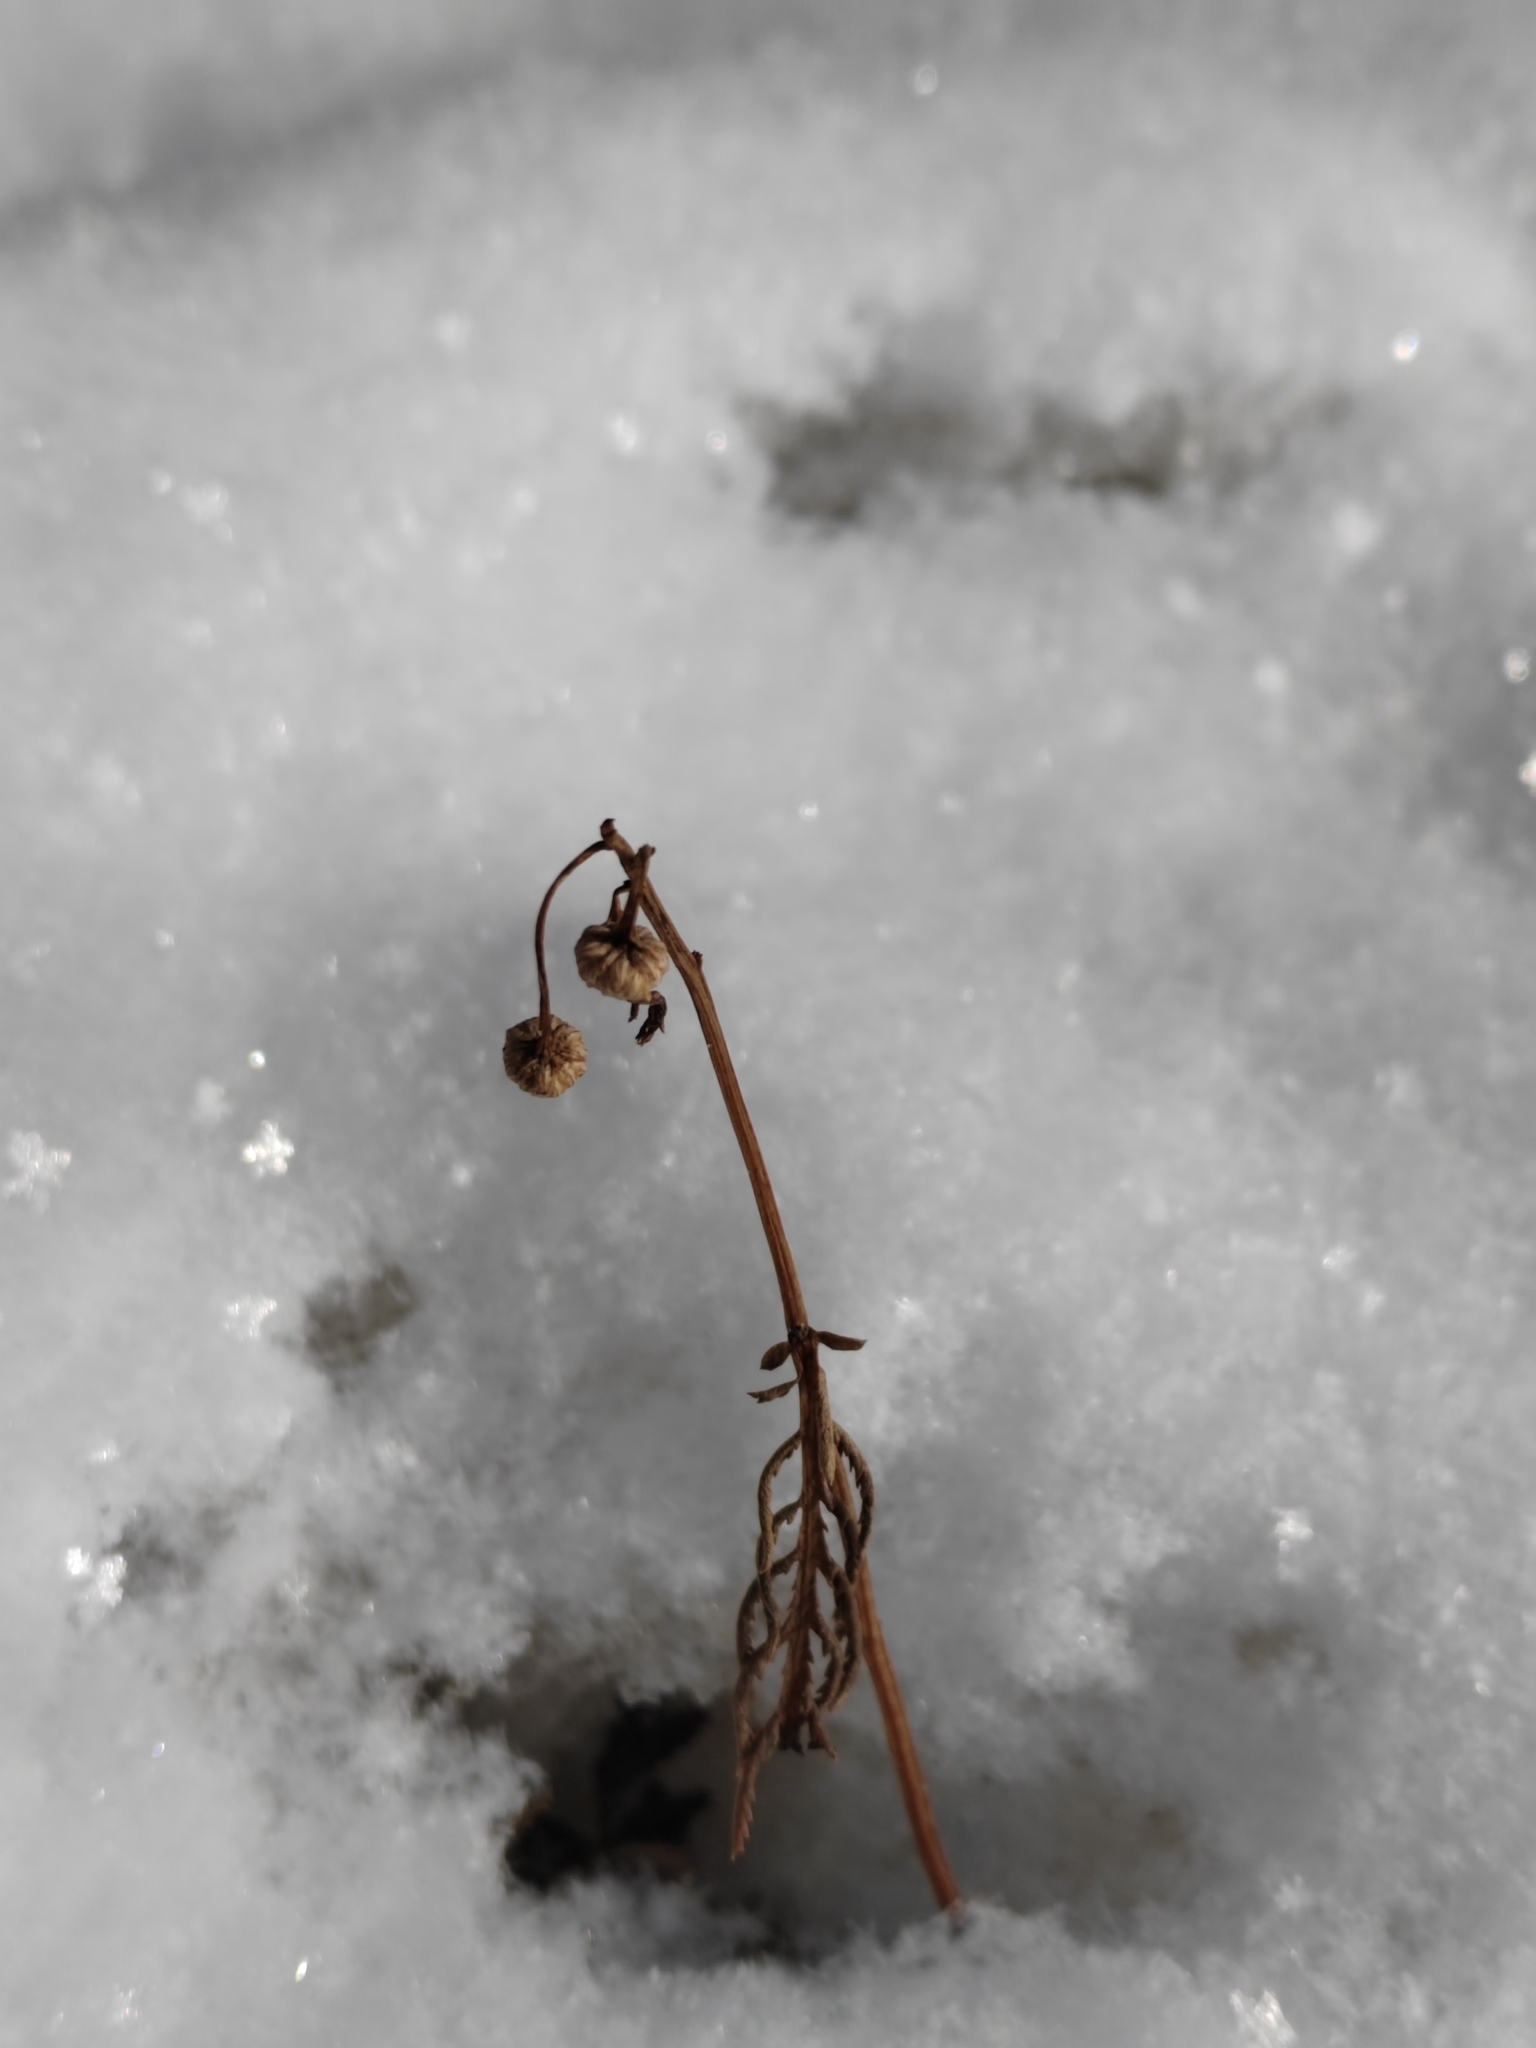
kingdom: Plantae
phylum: Tracheophyta
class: Magnoliopsida
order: Asterales
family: Asteraceae
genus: Tanacetum
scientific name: Tanacetum vulgare
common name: Common tansy
